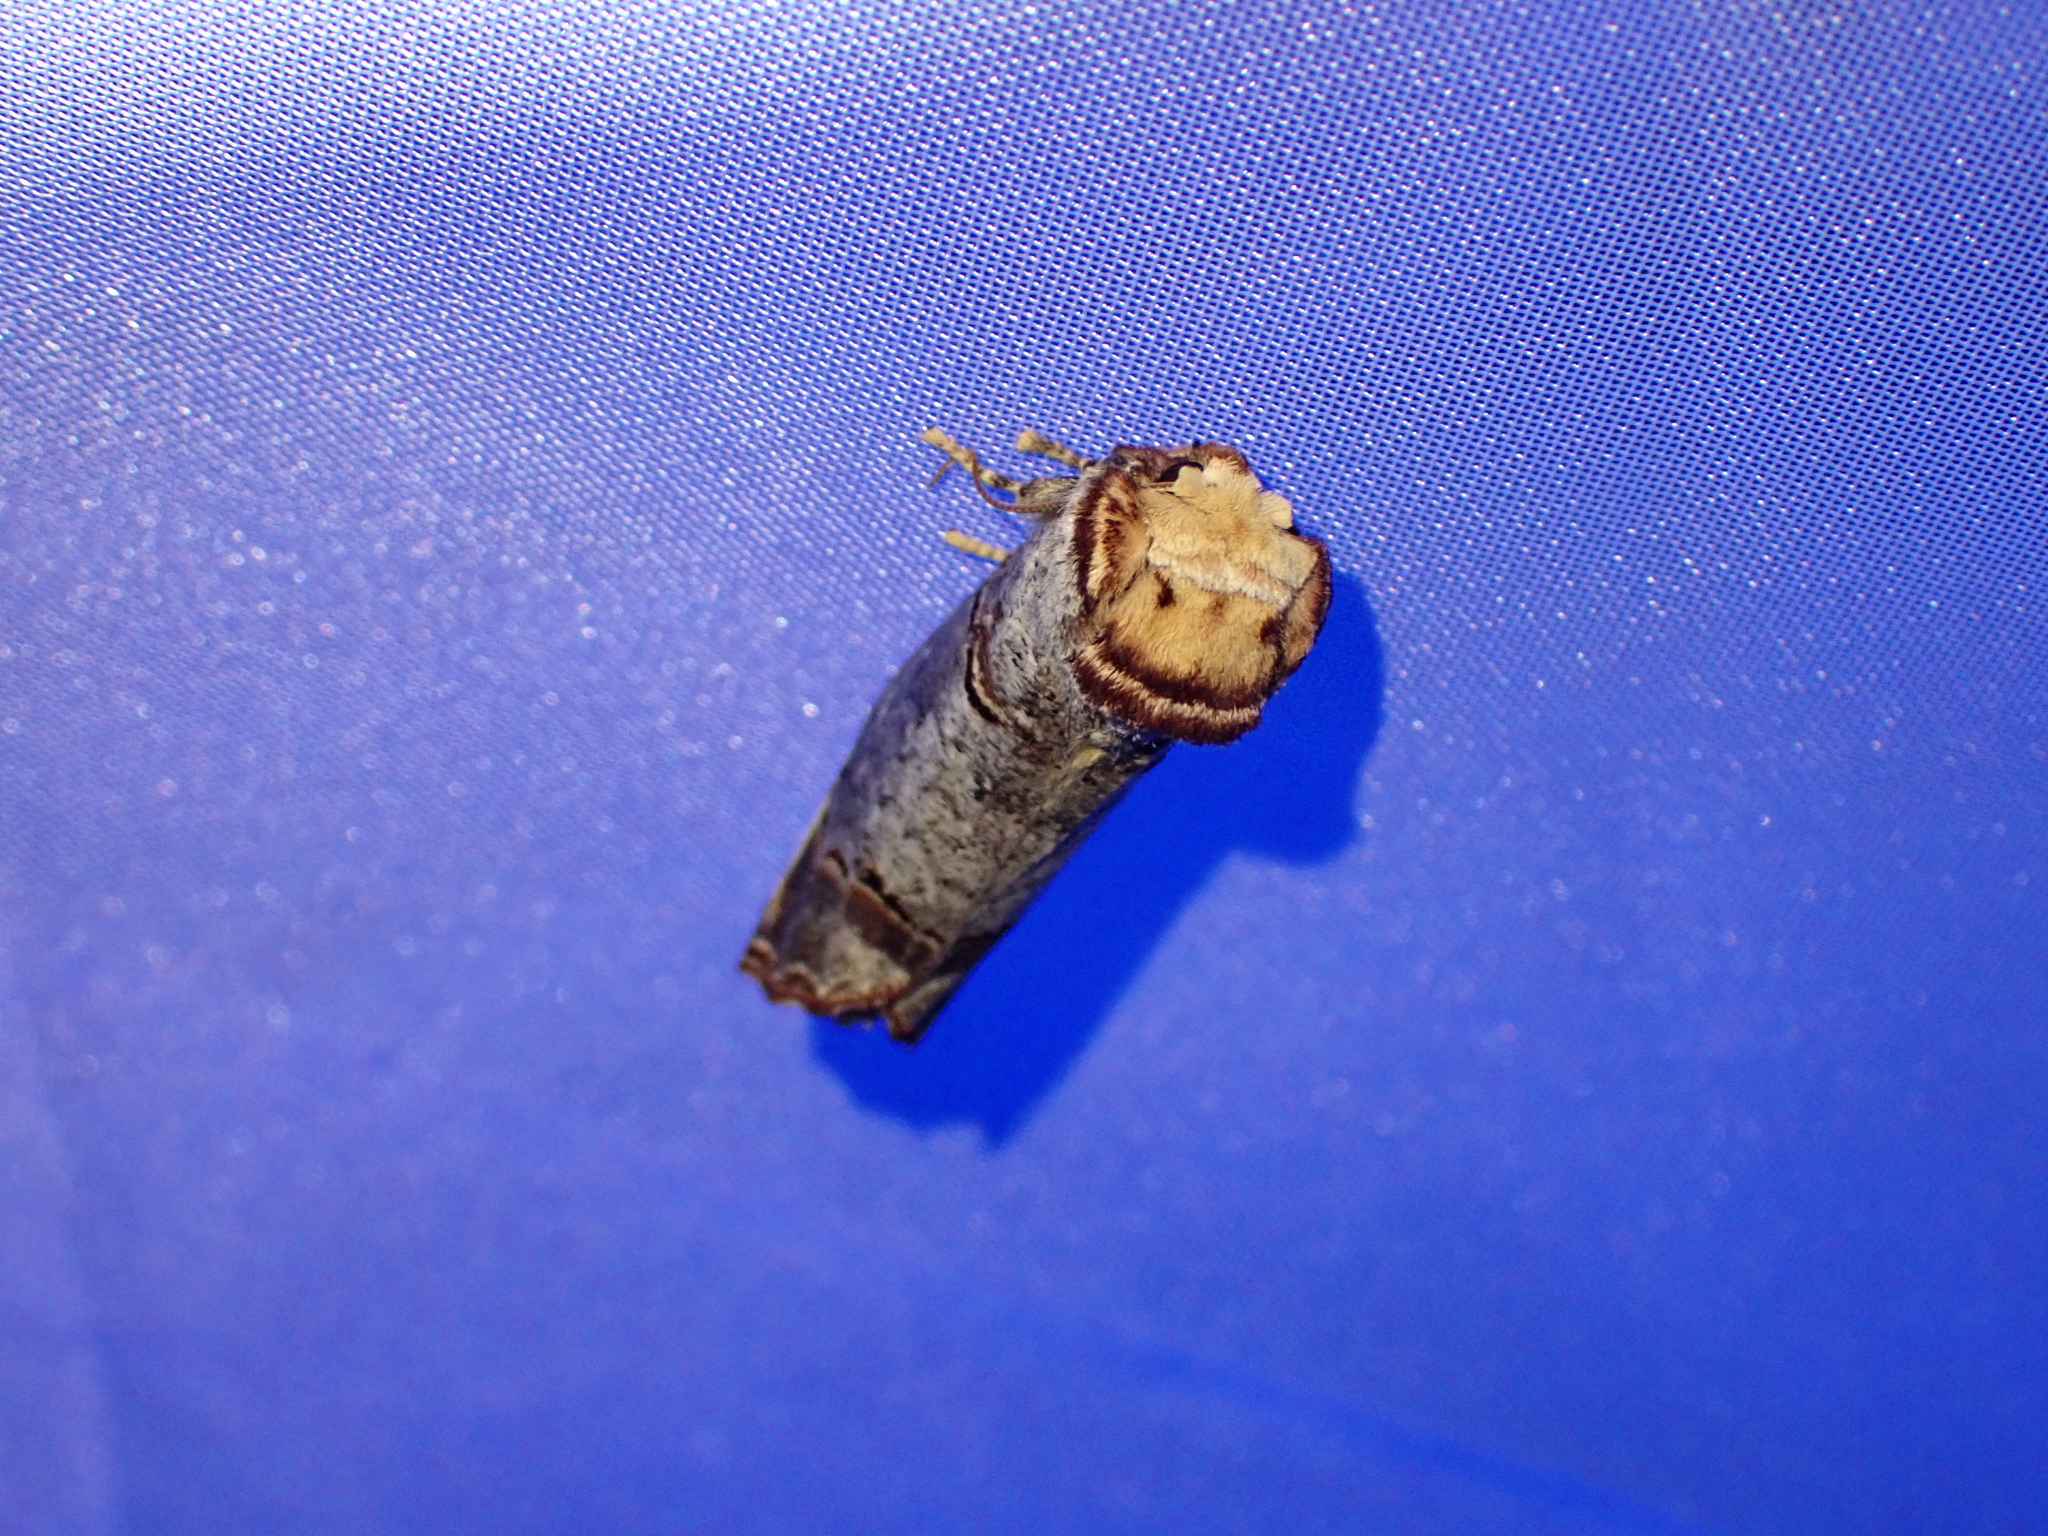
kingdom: Animalia
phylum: Arthropoda
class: Insecta
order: Lepidoptera
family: Notodontidae
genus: Phalera
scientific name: Phalera bucephala
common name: Buff-tip
